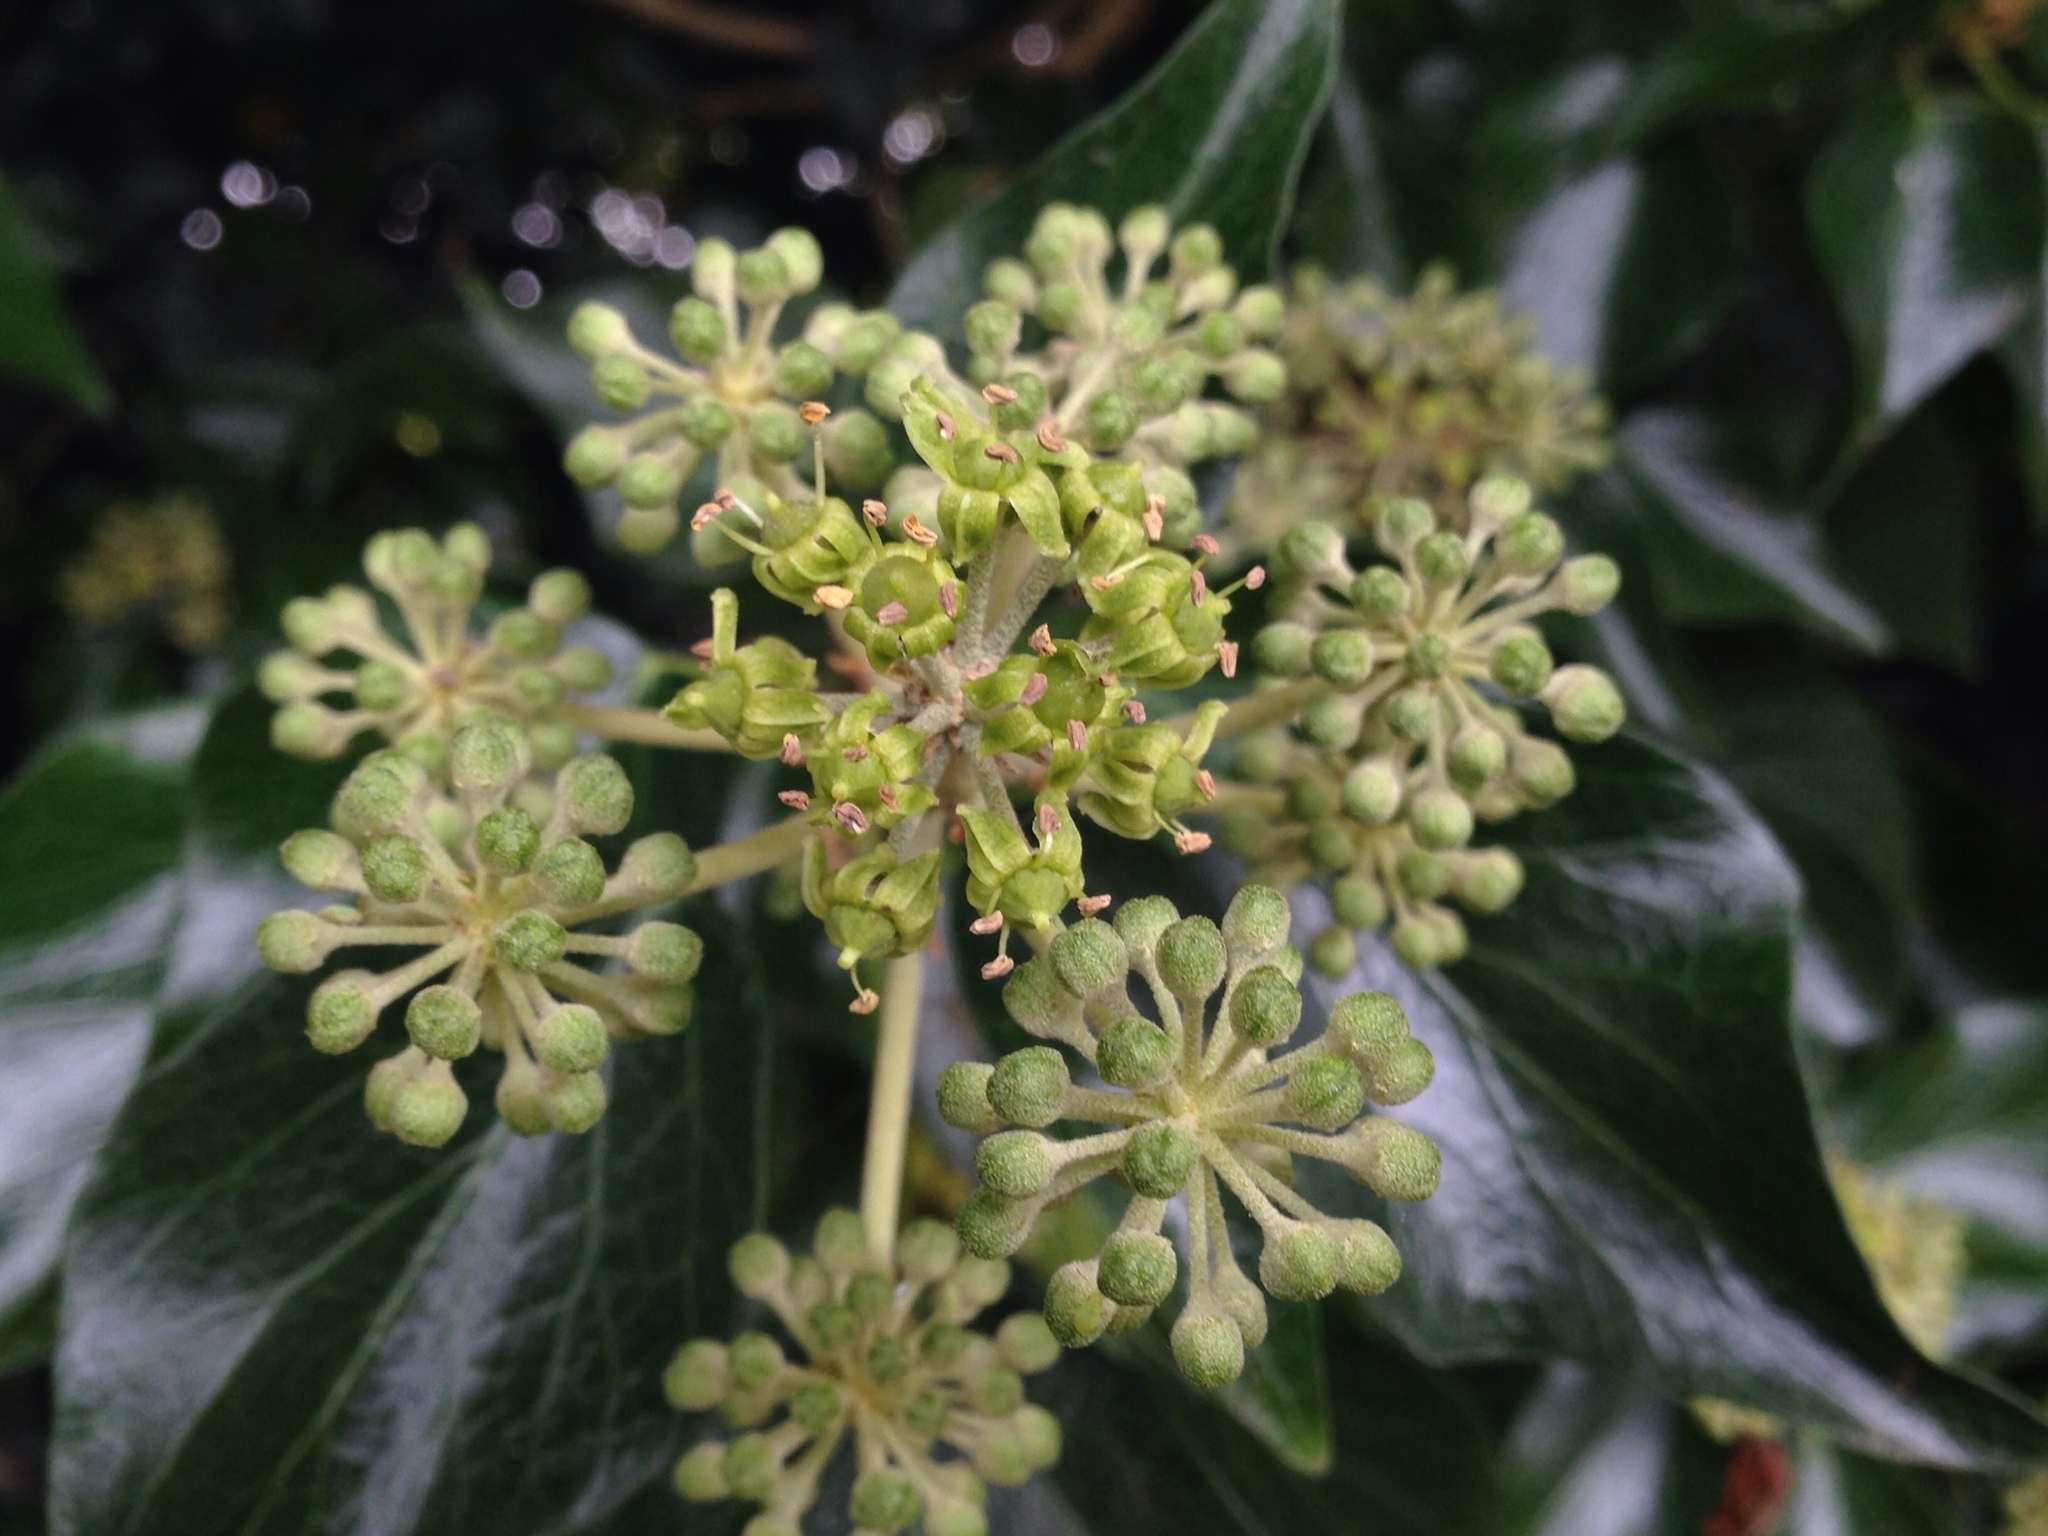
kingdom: Plantae
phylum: Tracheophyta
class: Magnoliopsida
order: Apiales
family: Araliaceae
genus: Hedera
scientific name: Hedera helix
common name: Ivy
